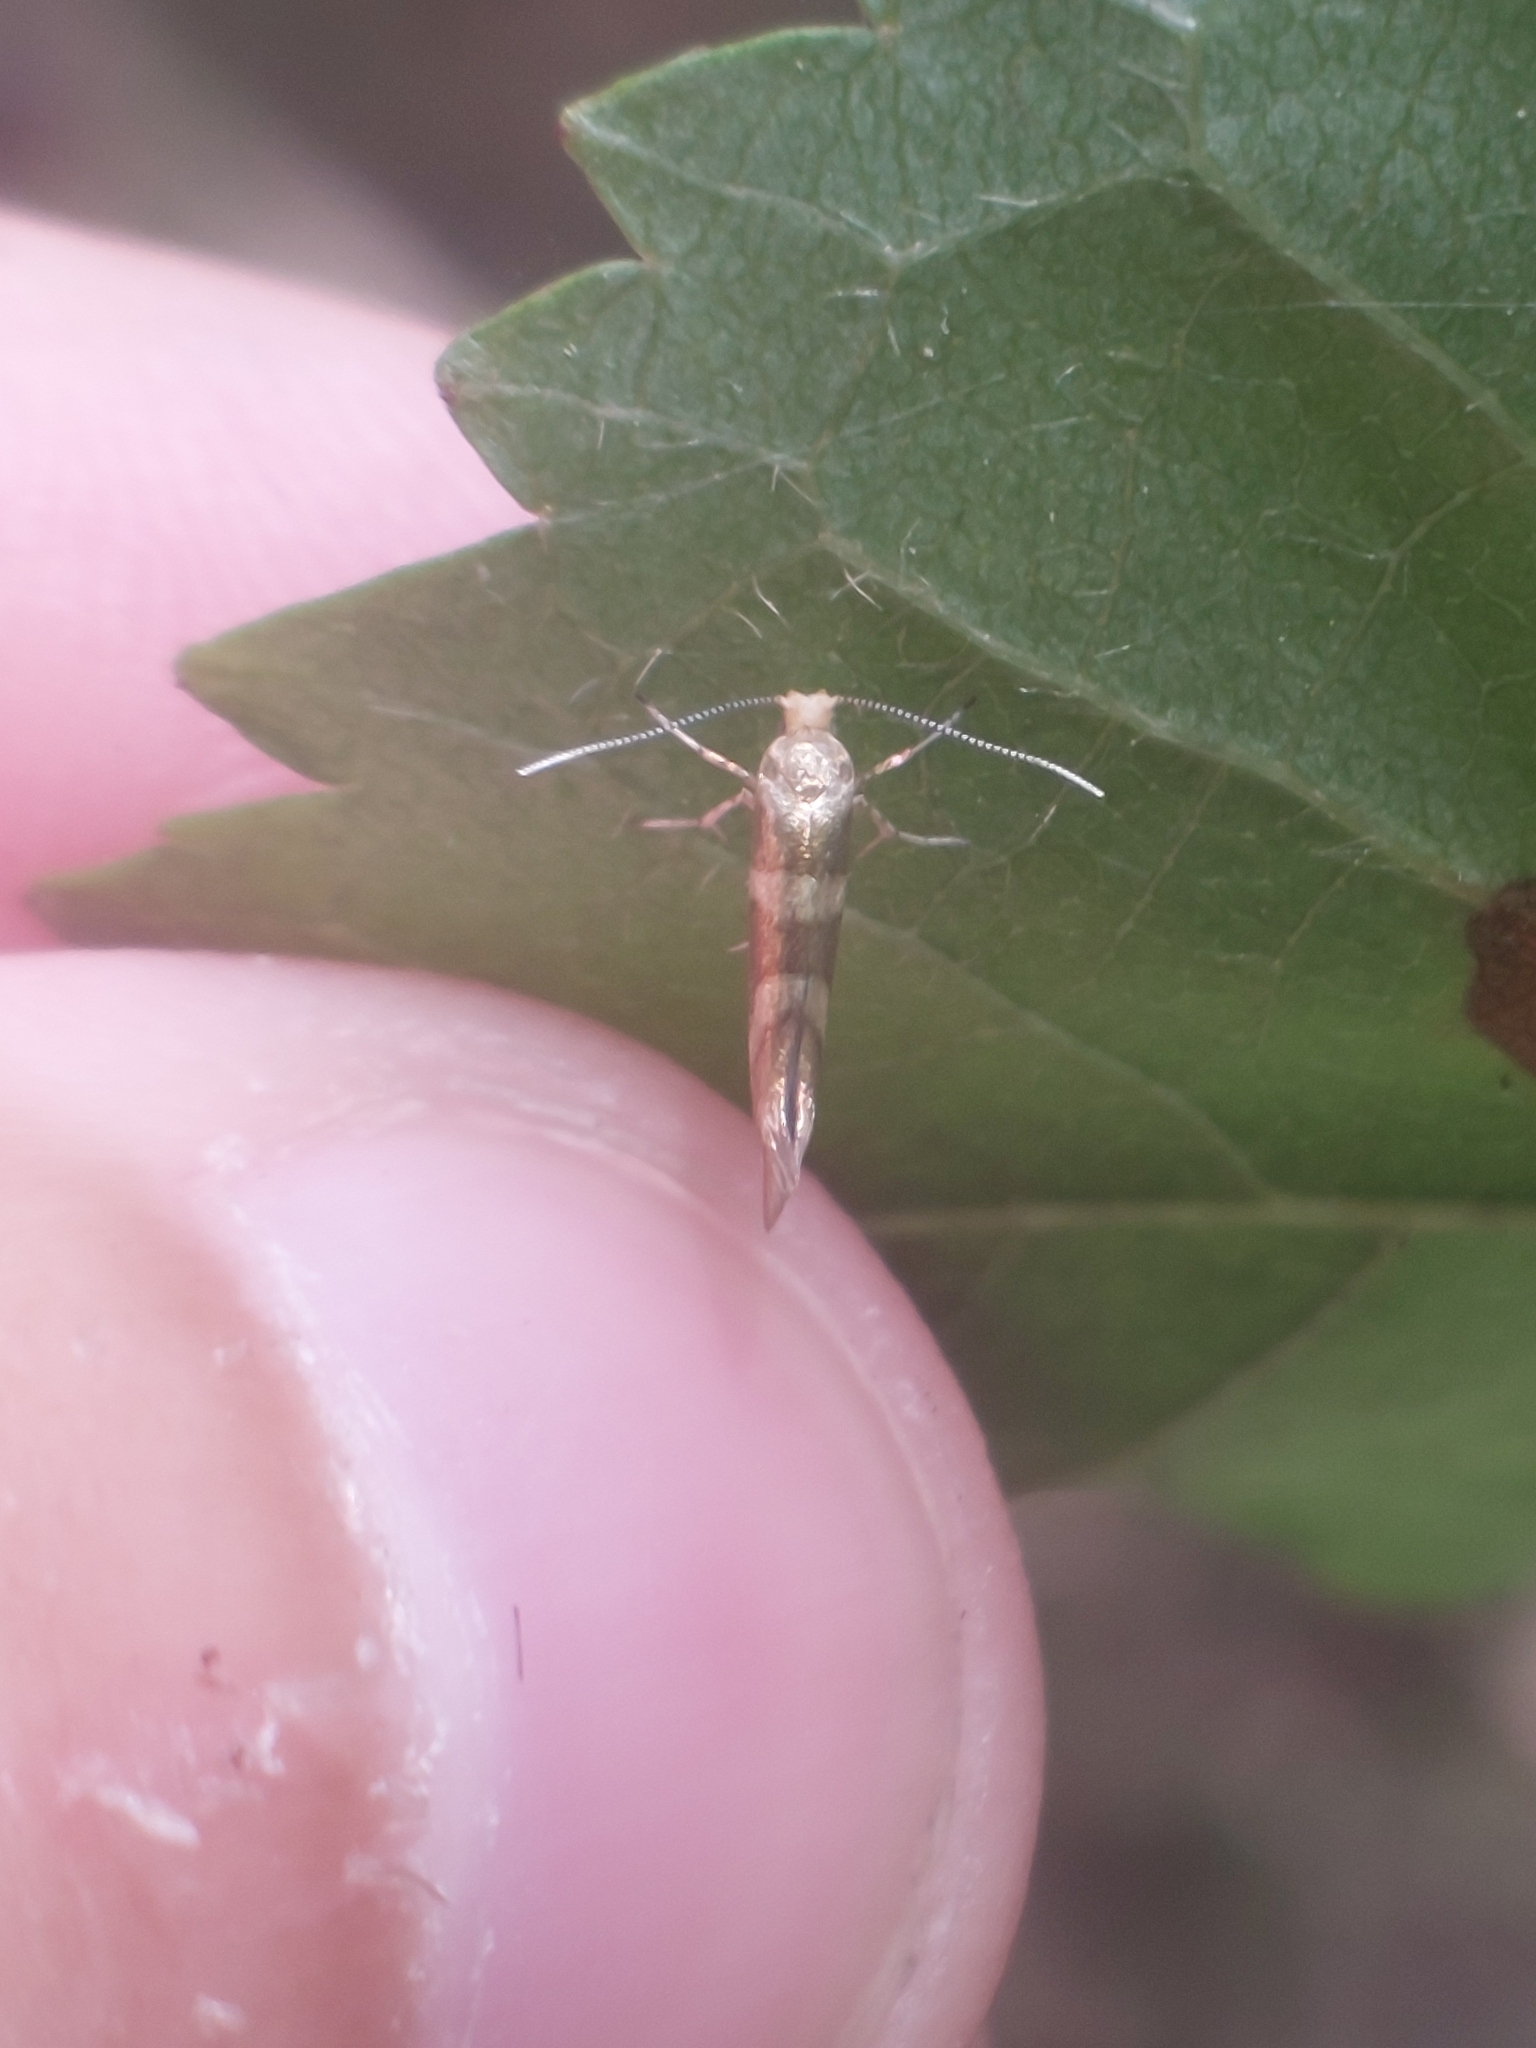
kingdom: Animalia
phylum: Arthropoda
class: Insecta
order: Lepidoptera
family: Argyresthiidae
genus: Argyresthia
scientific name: Argyresthia goedartella
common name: Golden argent
